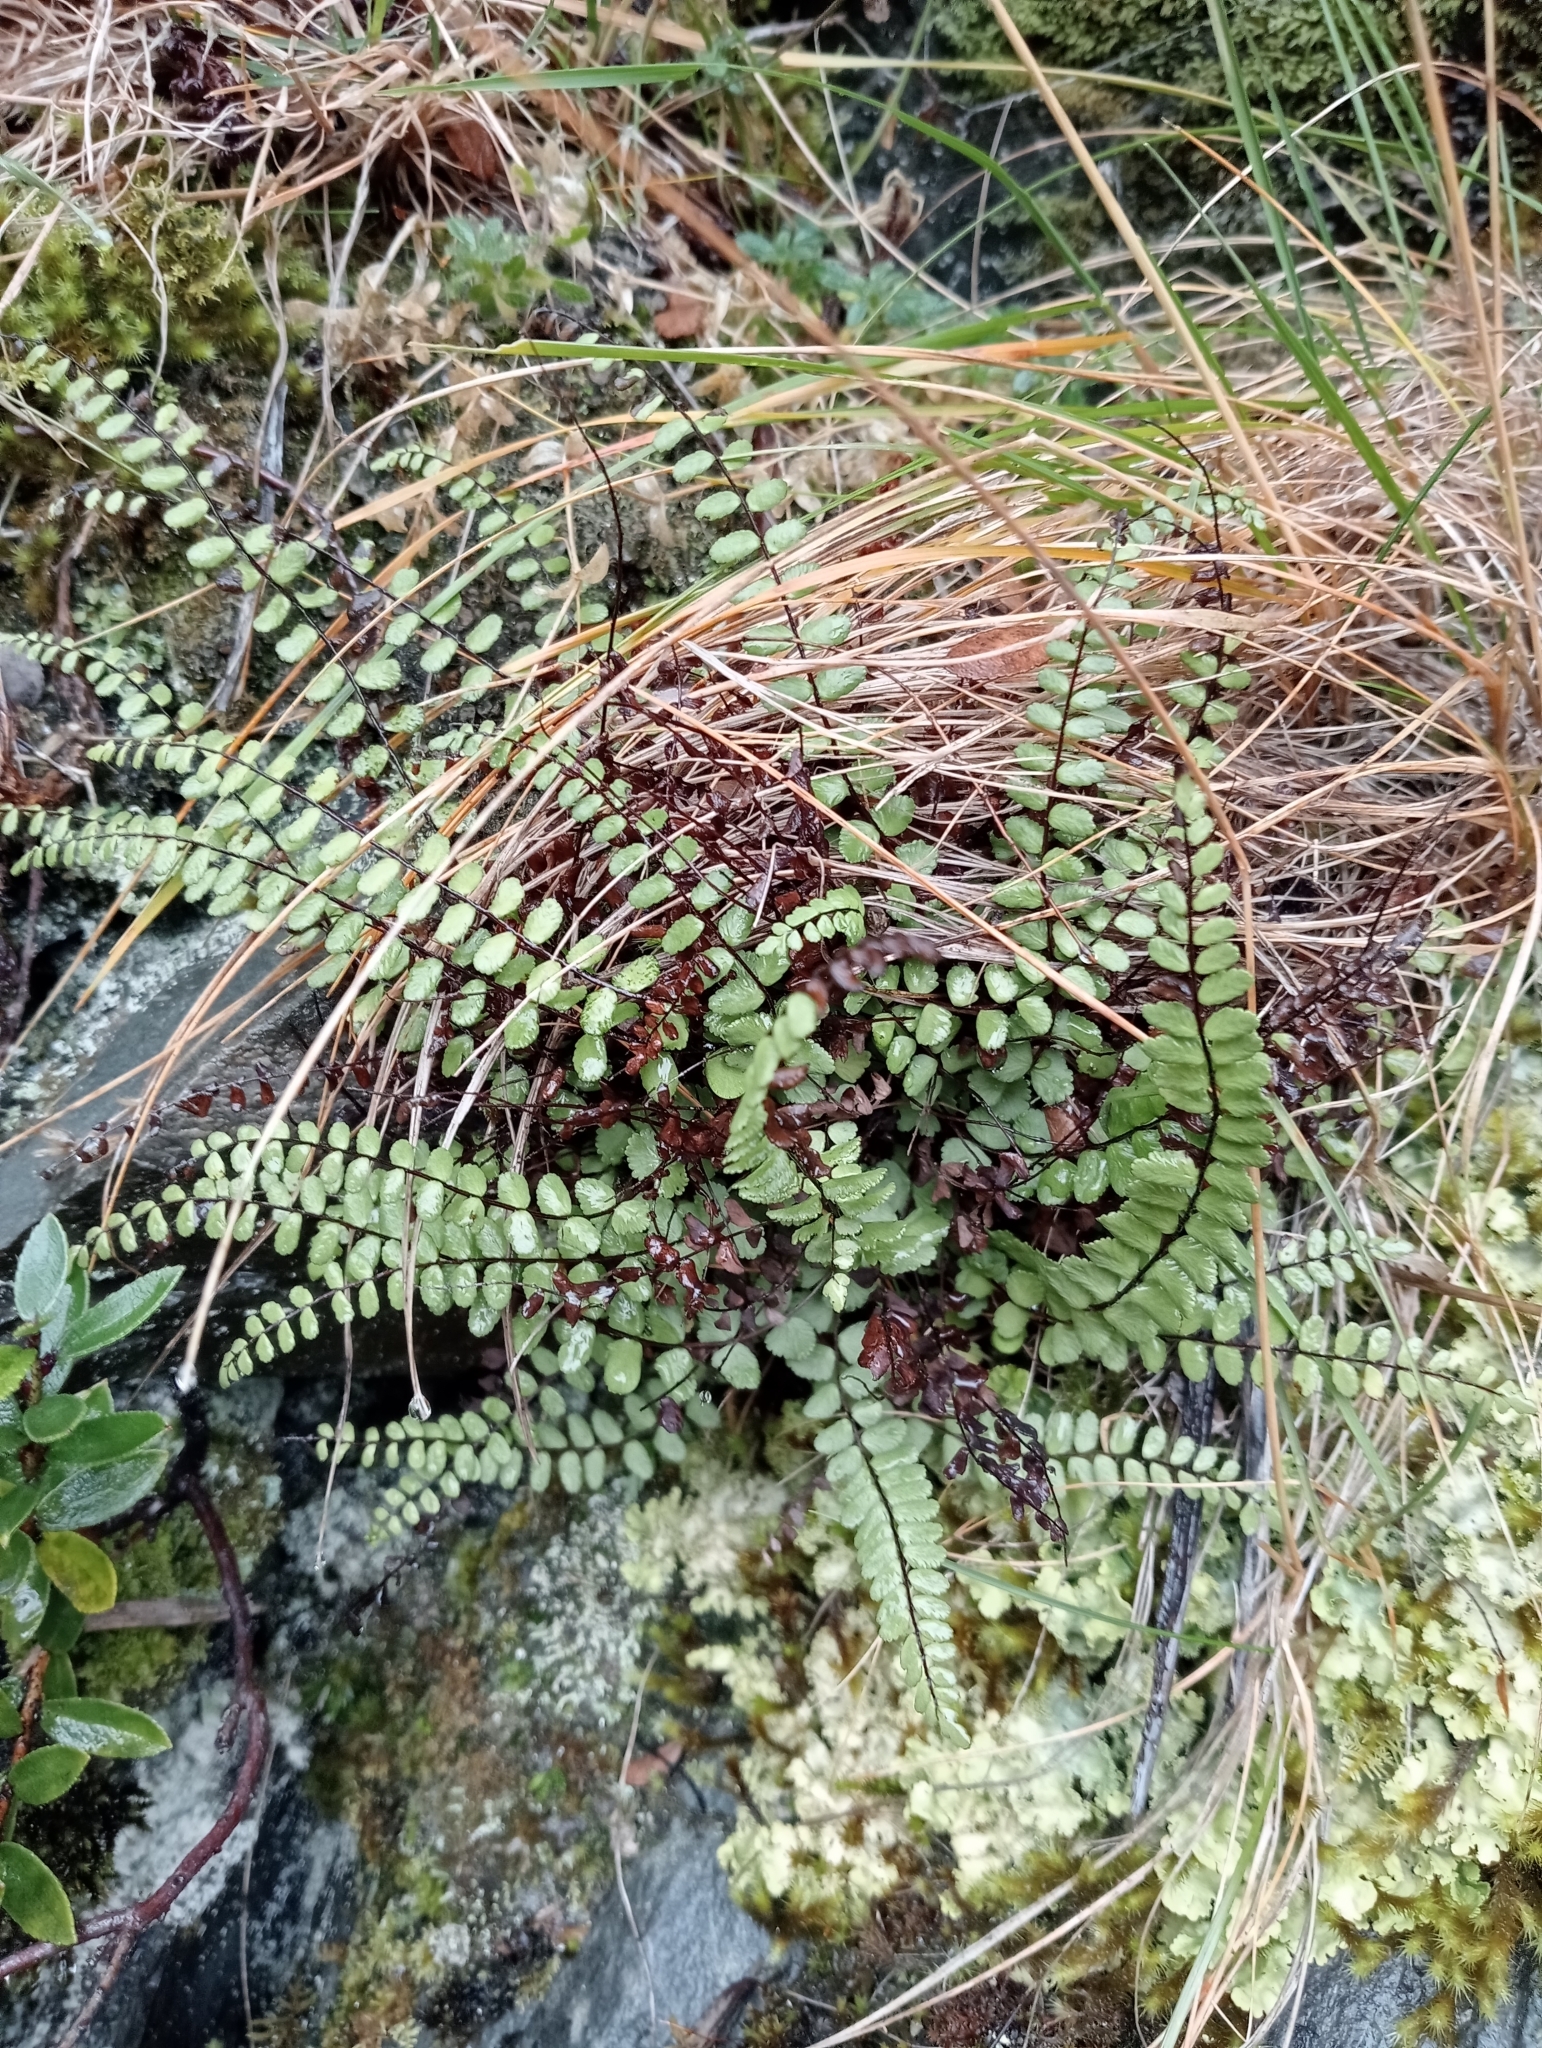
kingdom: Plantae
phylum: Tracheophyta
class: Polypodiopsida
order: Polypodiales
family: Aspleniaceae
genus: Asplenium
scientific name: Asplenium trichomanes
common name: Maidenhair spleenwort
